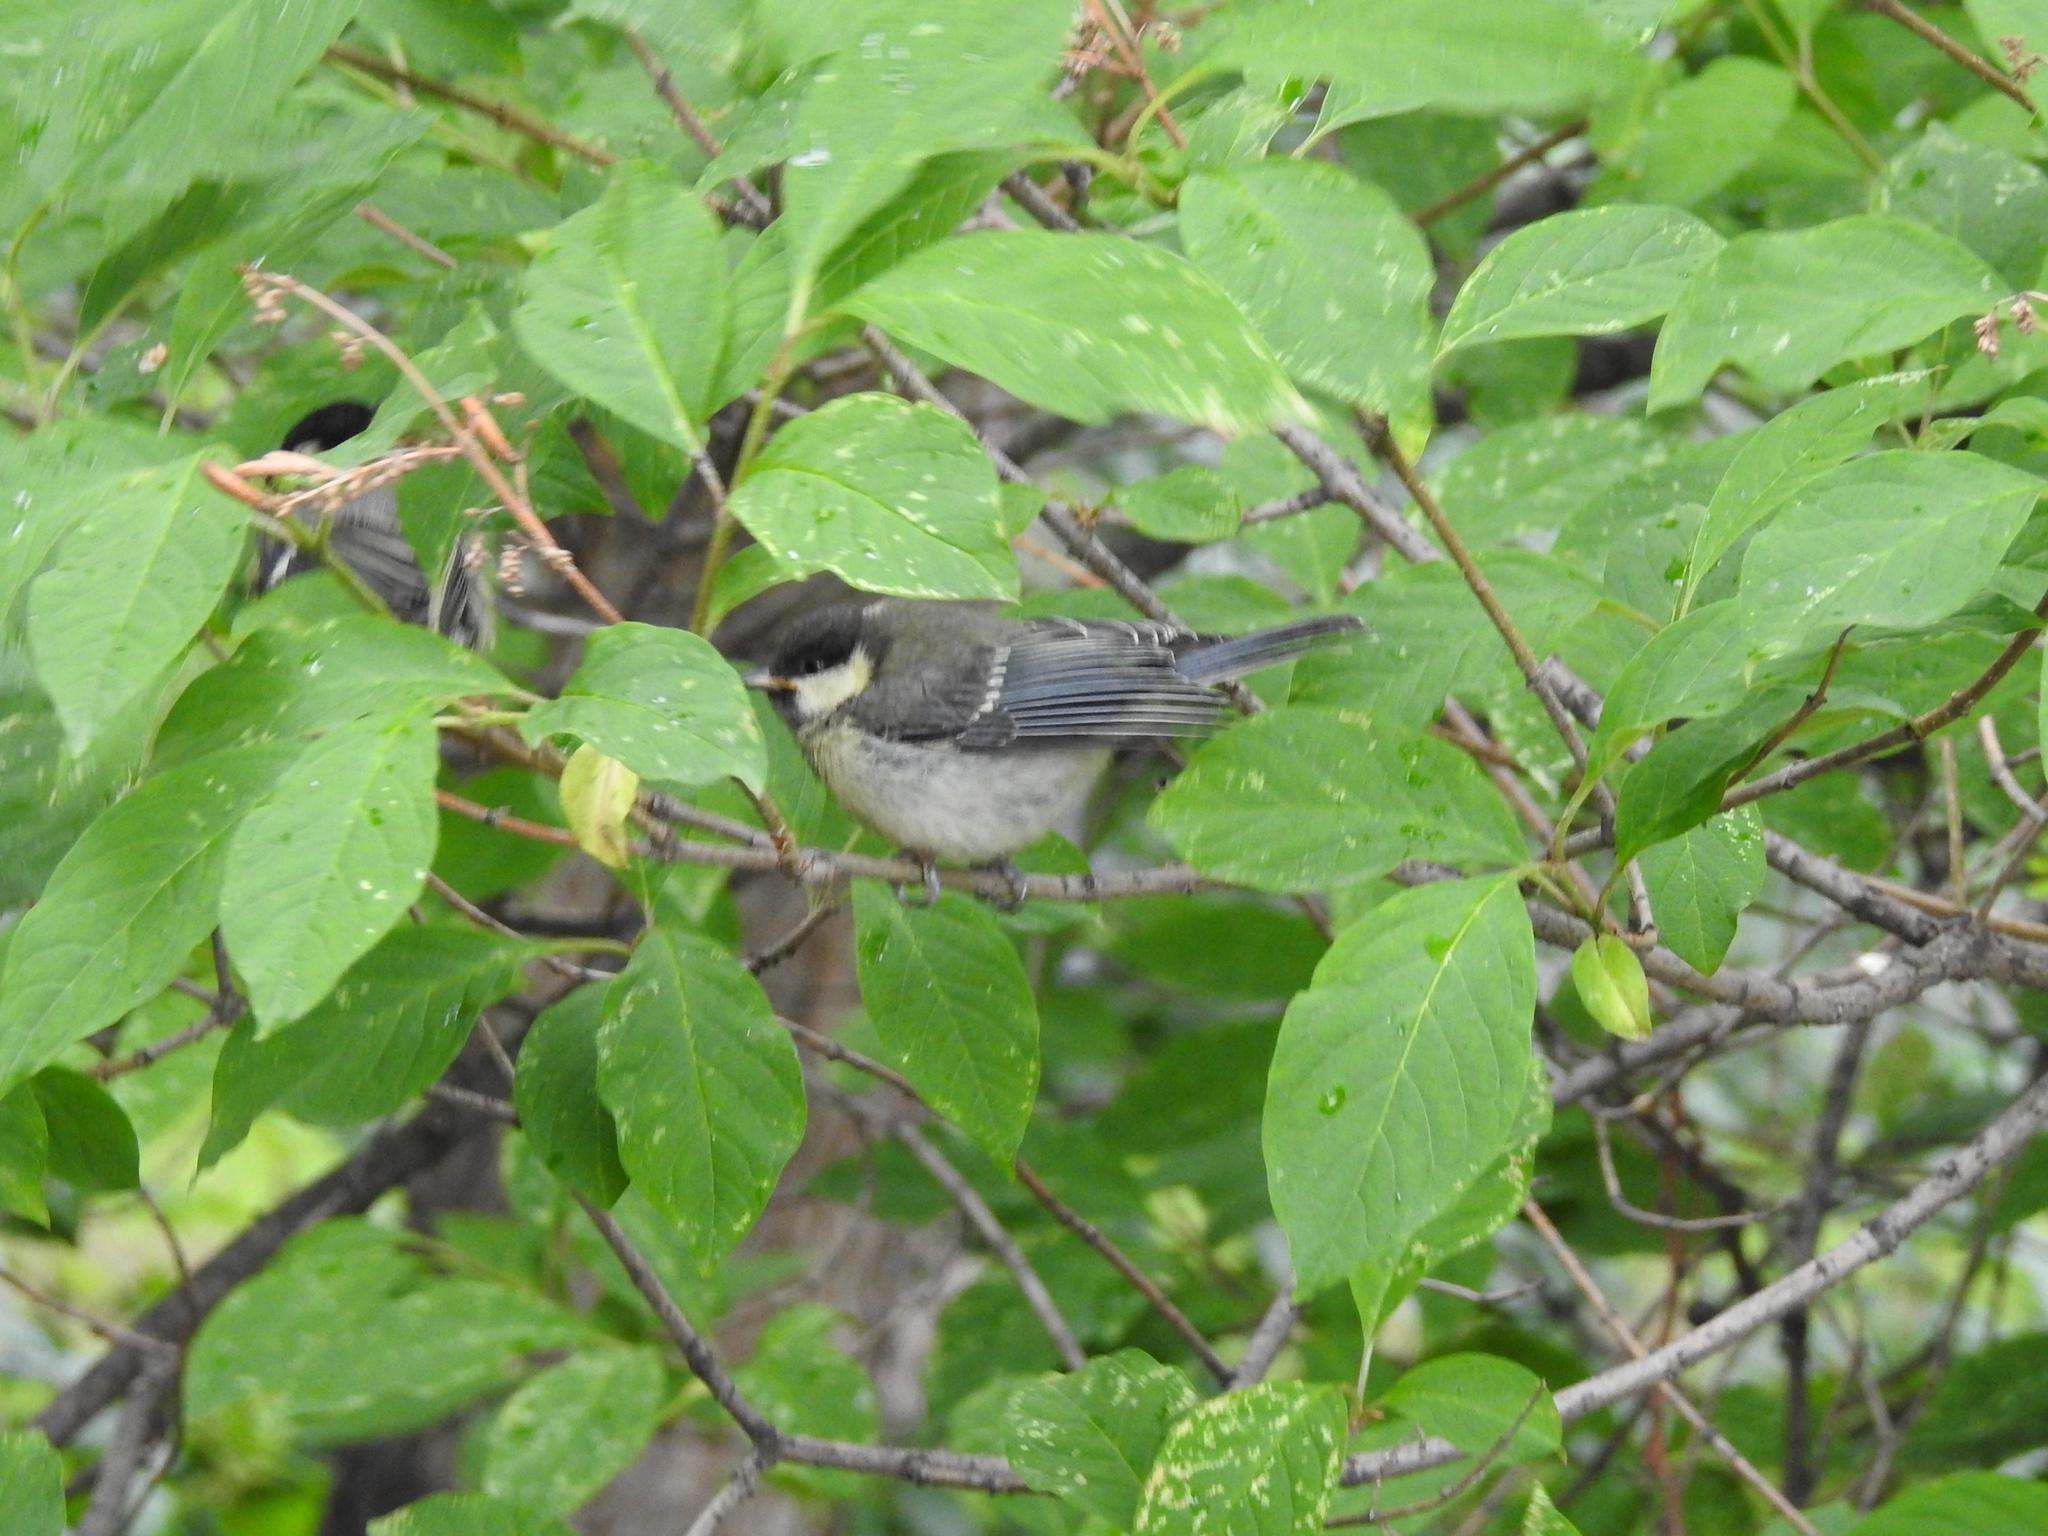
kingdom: Animalia
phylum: Chordata
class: Aves
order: Passeriformes
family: Paridae
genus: Parus
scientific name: Parus major
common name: Great tit
